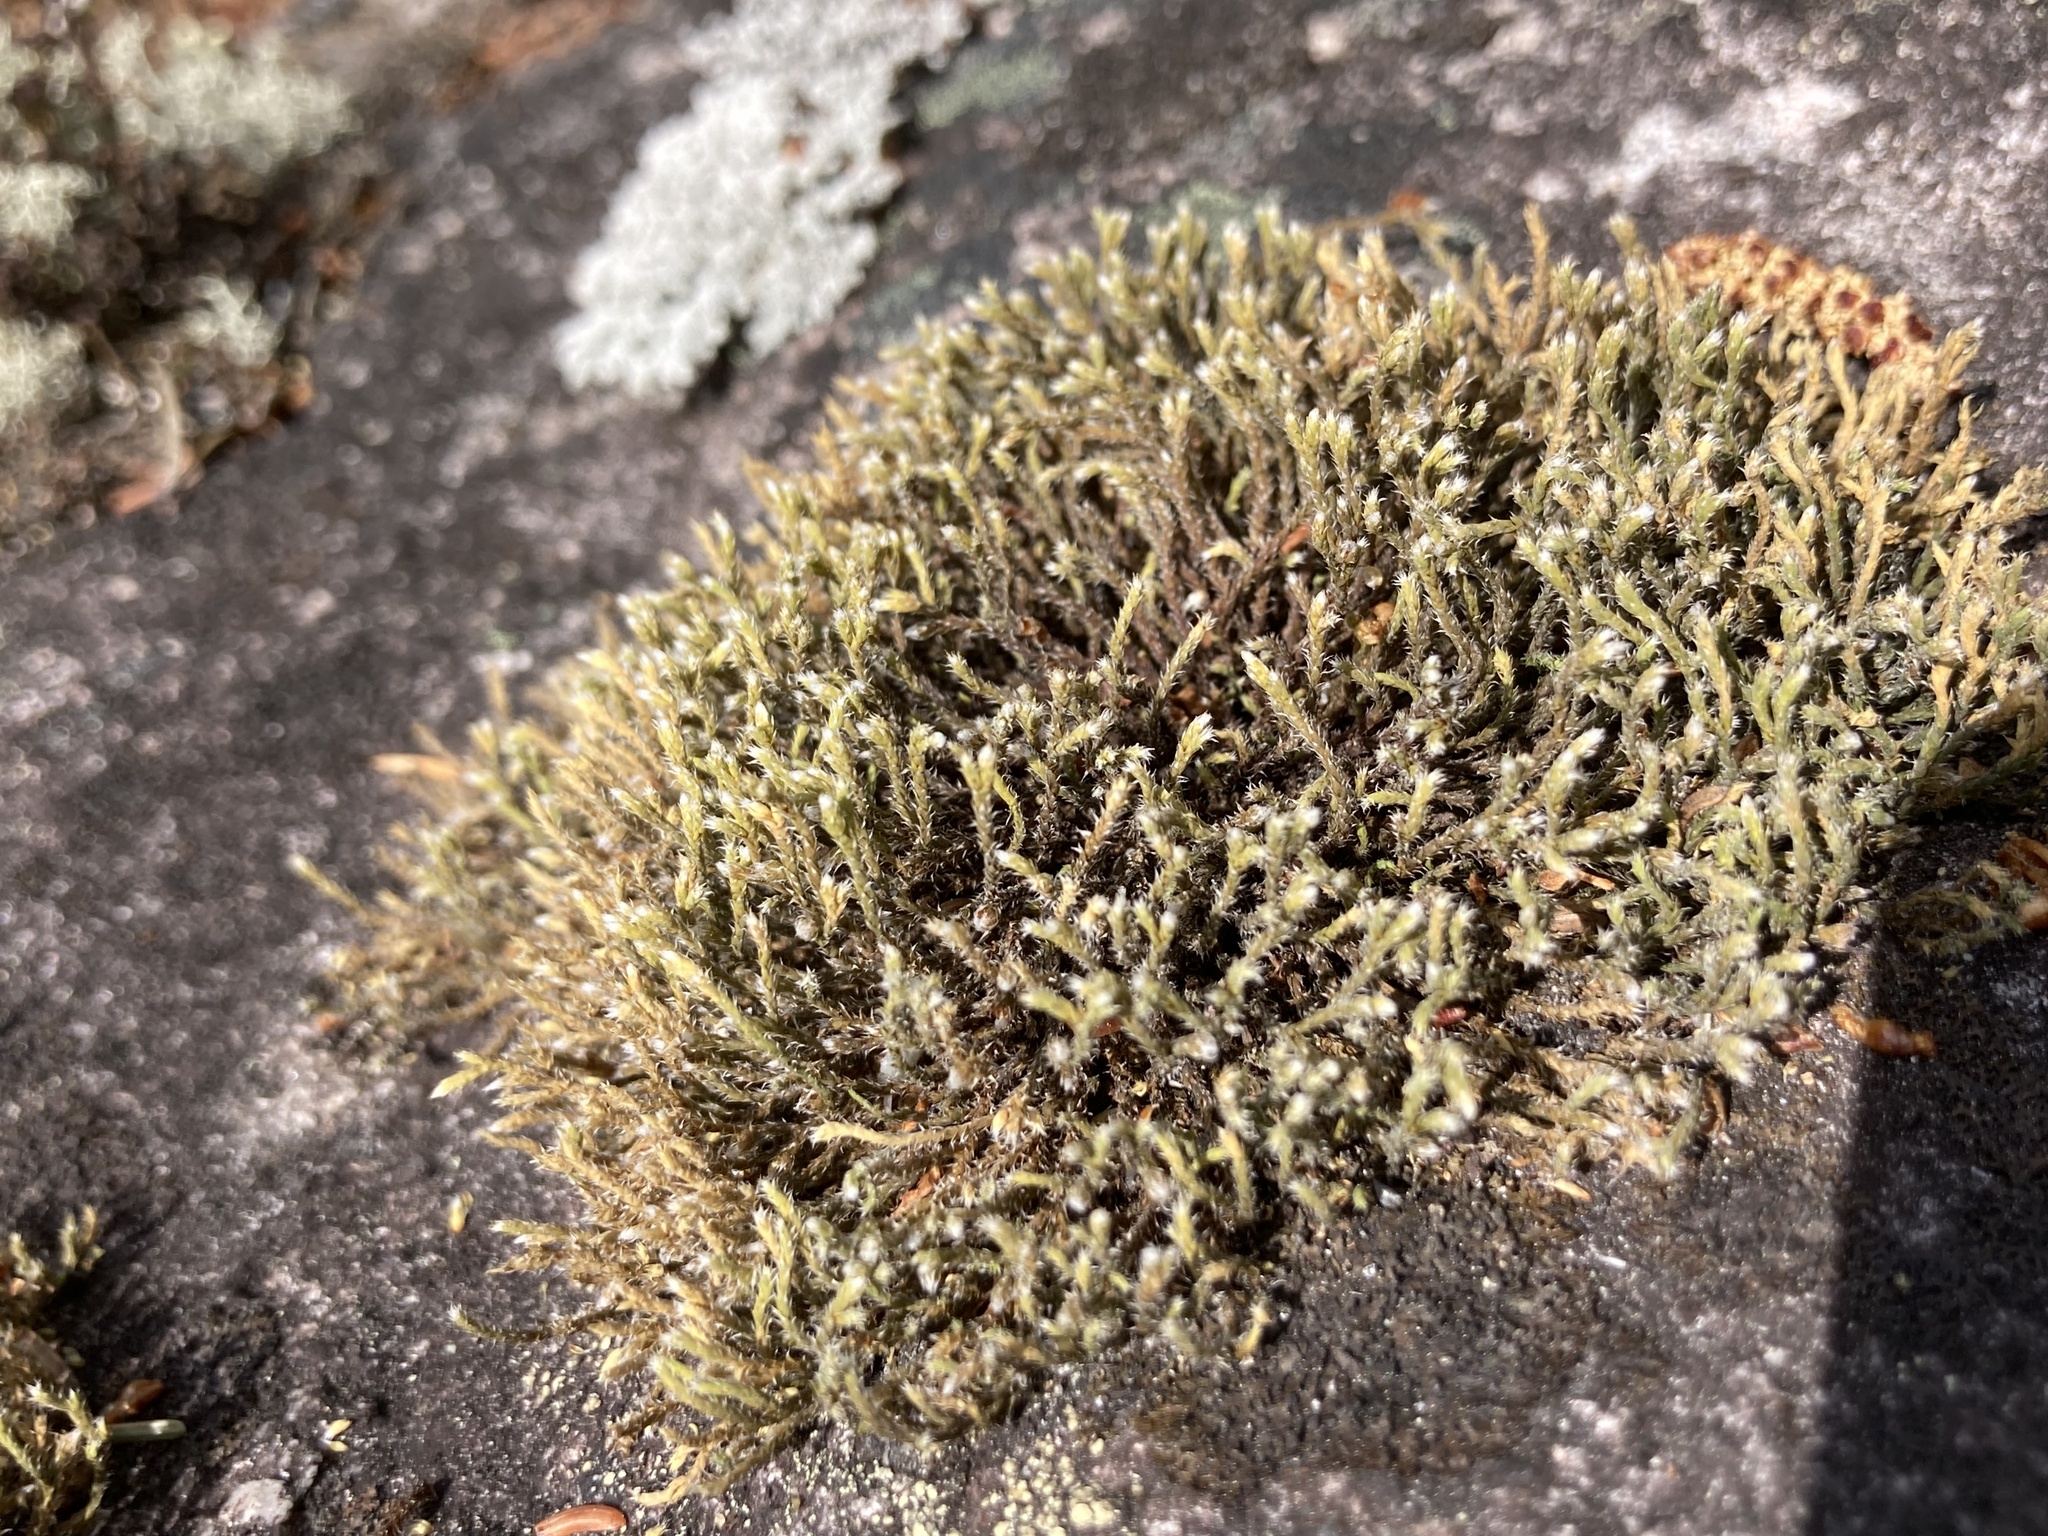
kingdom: Plantae
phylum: Bryophyta
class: Bryopsida
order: Hedwigiales
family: Hedwigiaceae
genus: Hedwigia
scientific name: Hedwigia ciliata
